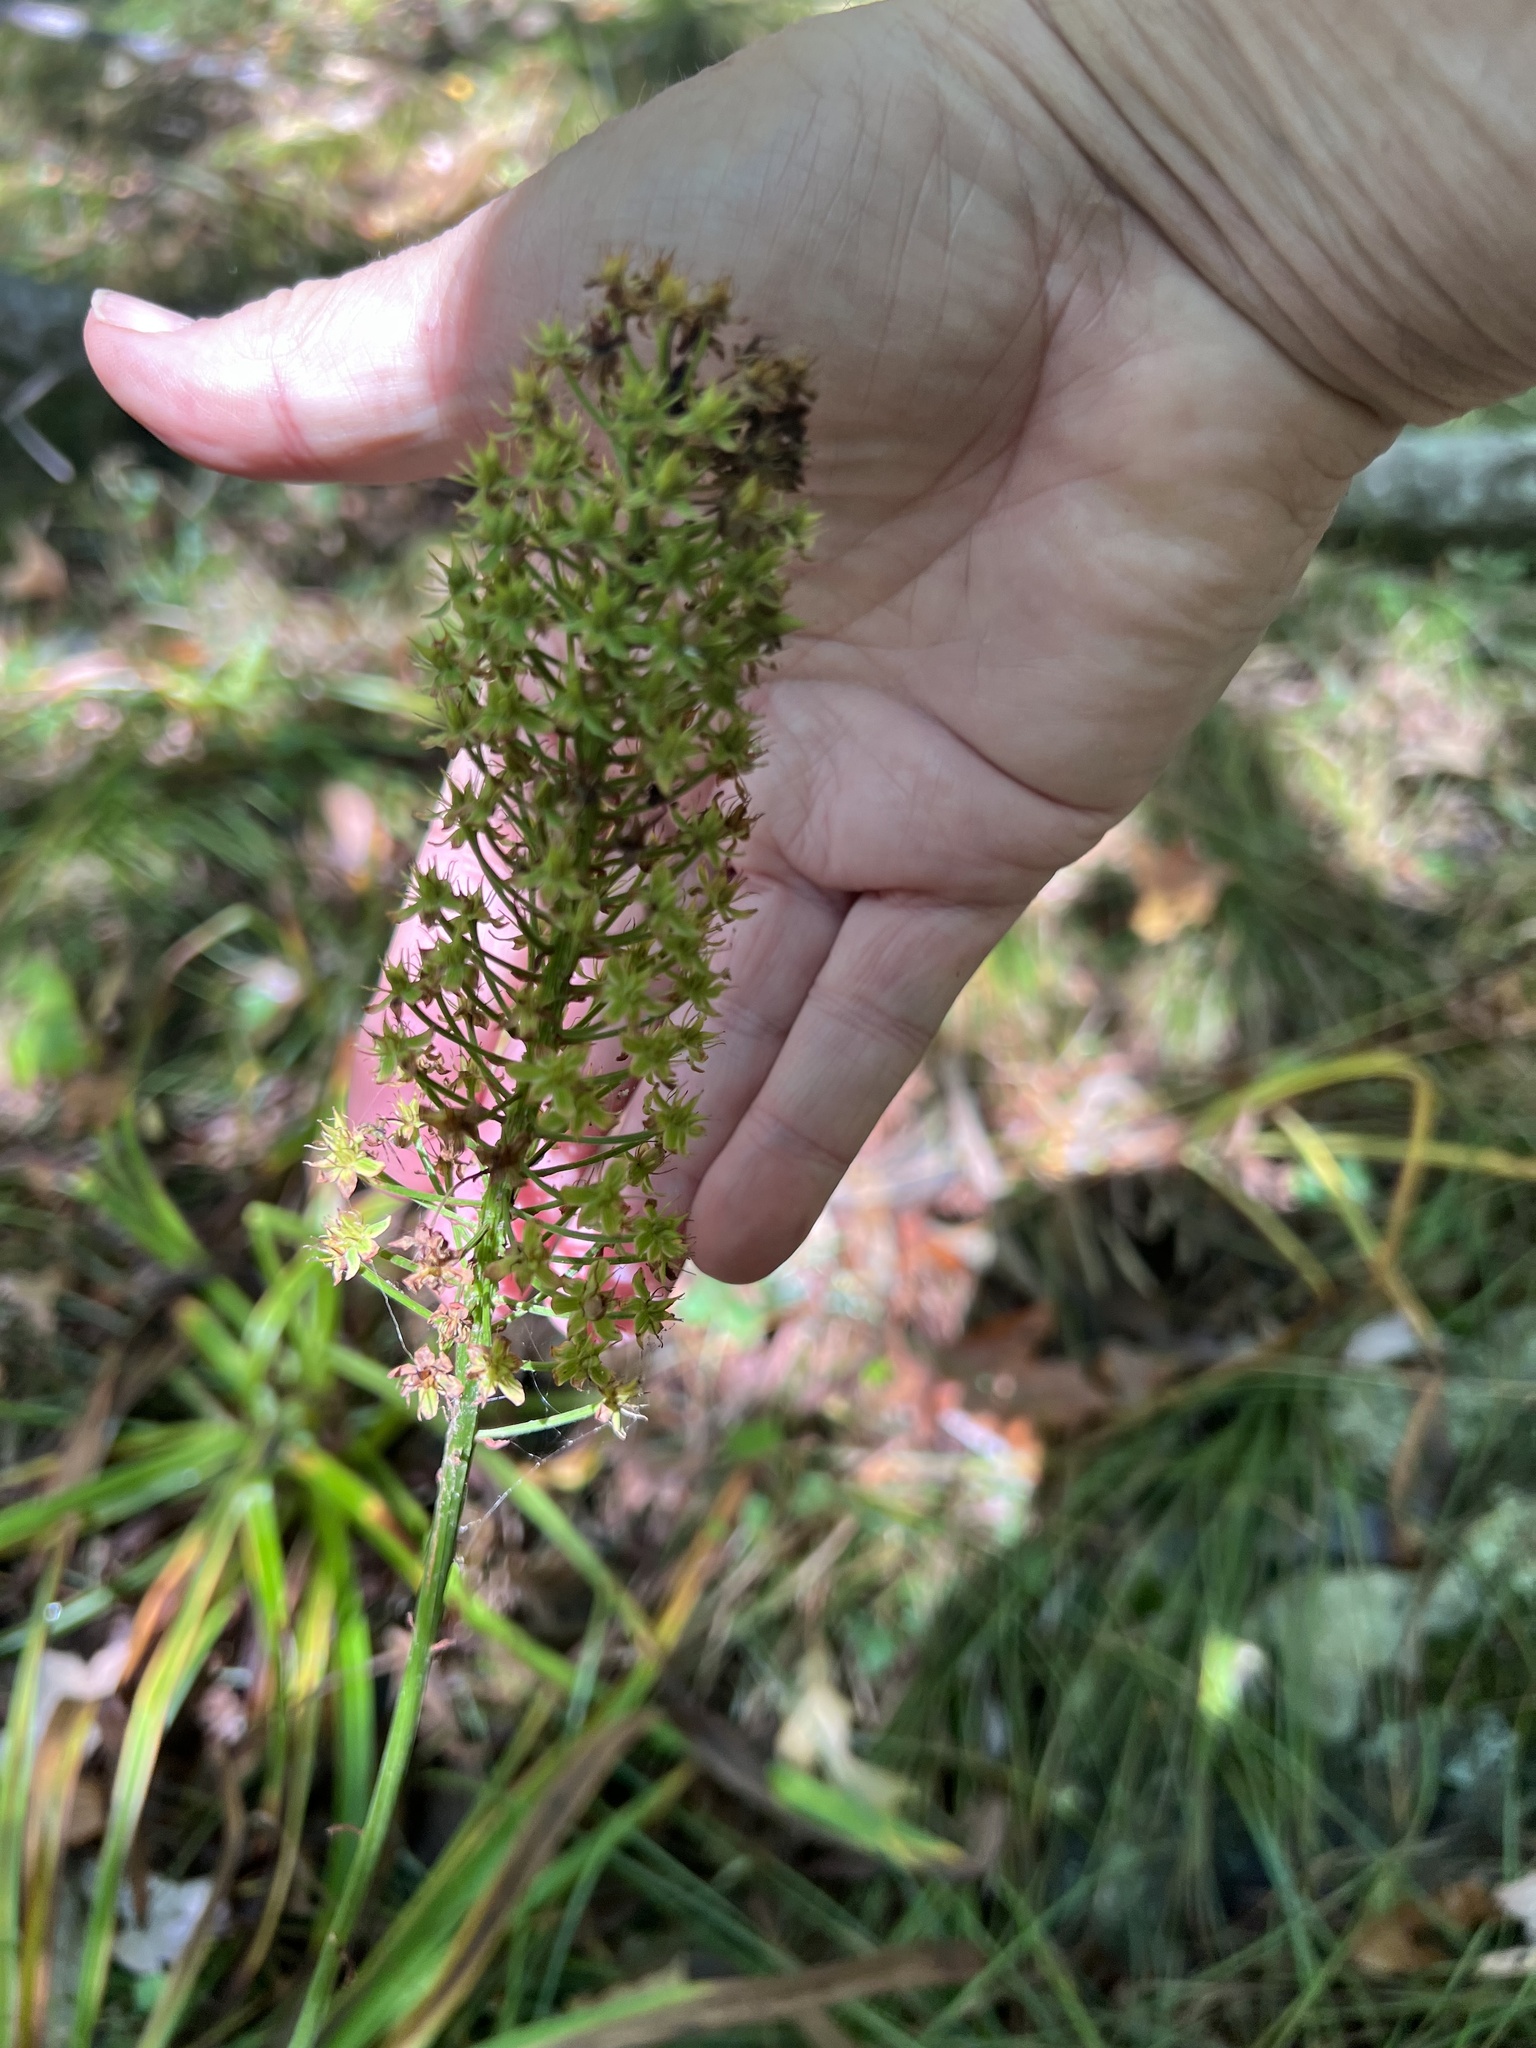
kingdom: Plantae
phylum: Tracheophyta
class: Liliopsida
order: Liliales
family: Melanthiaceae
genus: Amianthium
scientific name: Amianthium muscitoxicum
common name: Fly-poison
